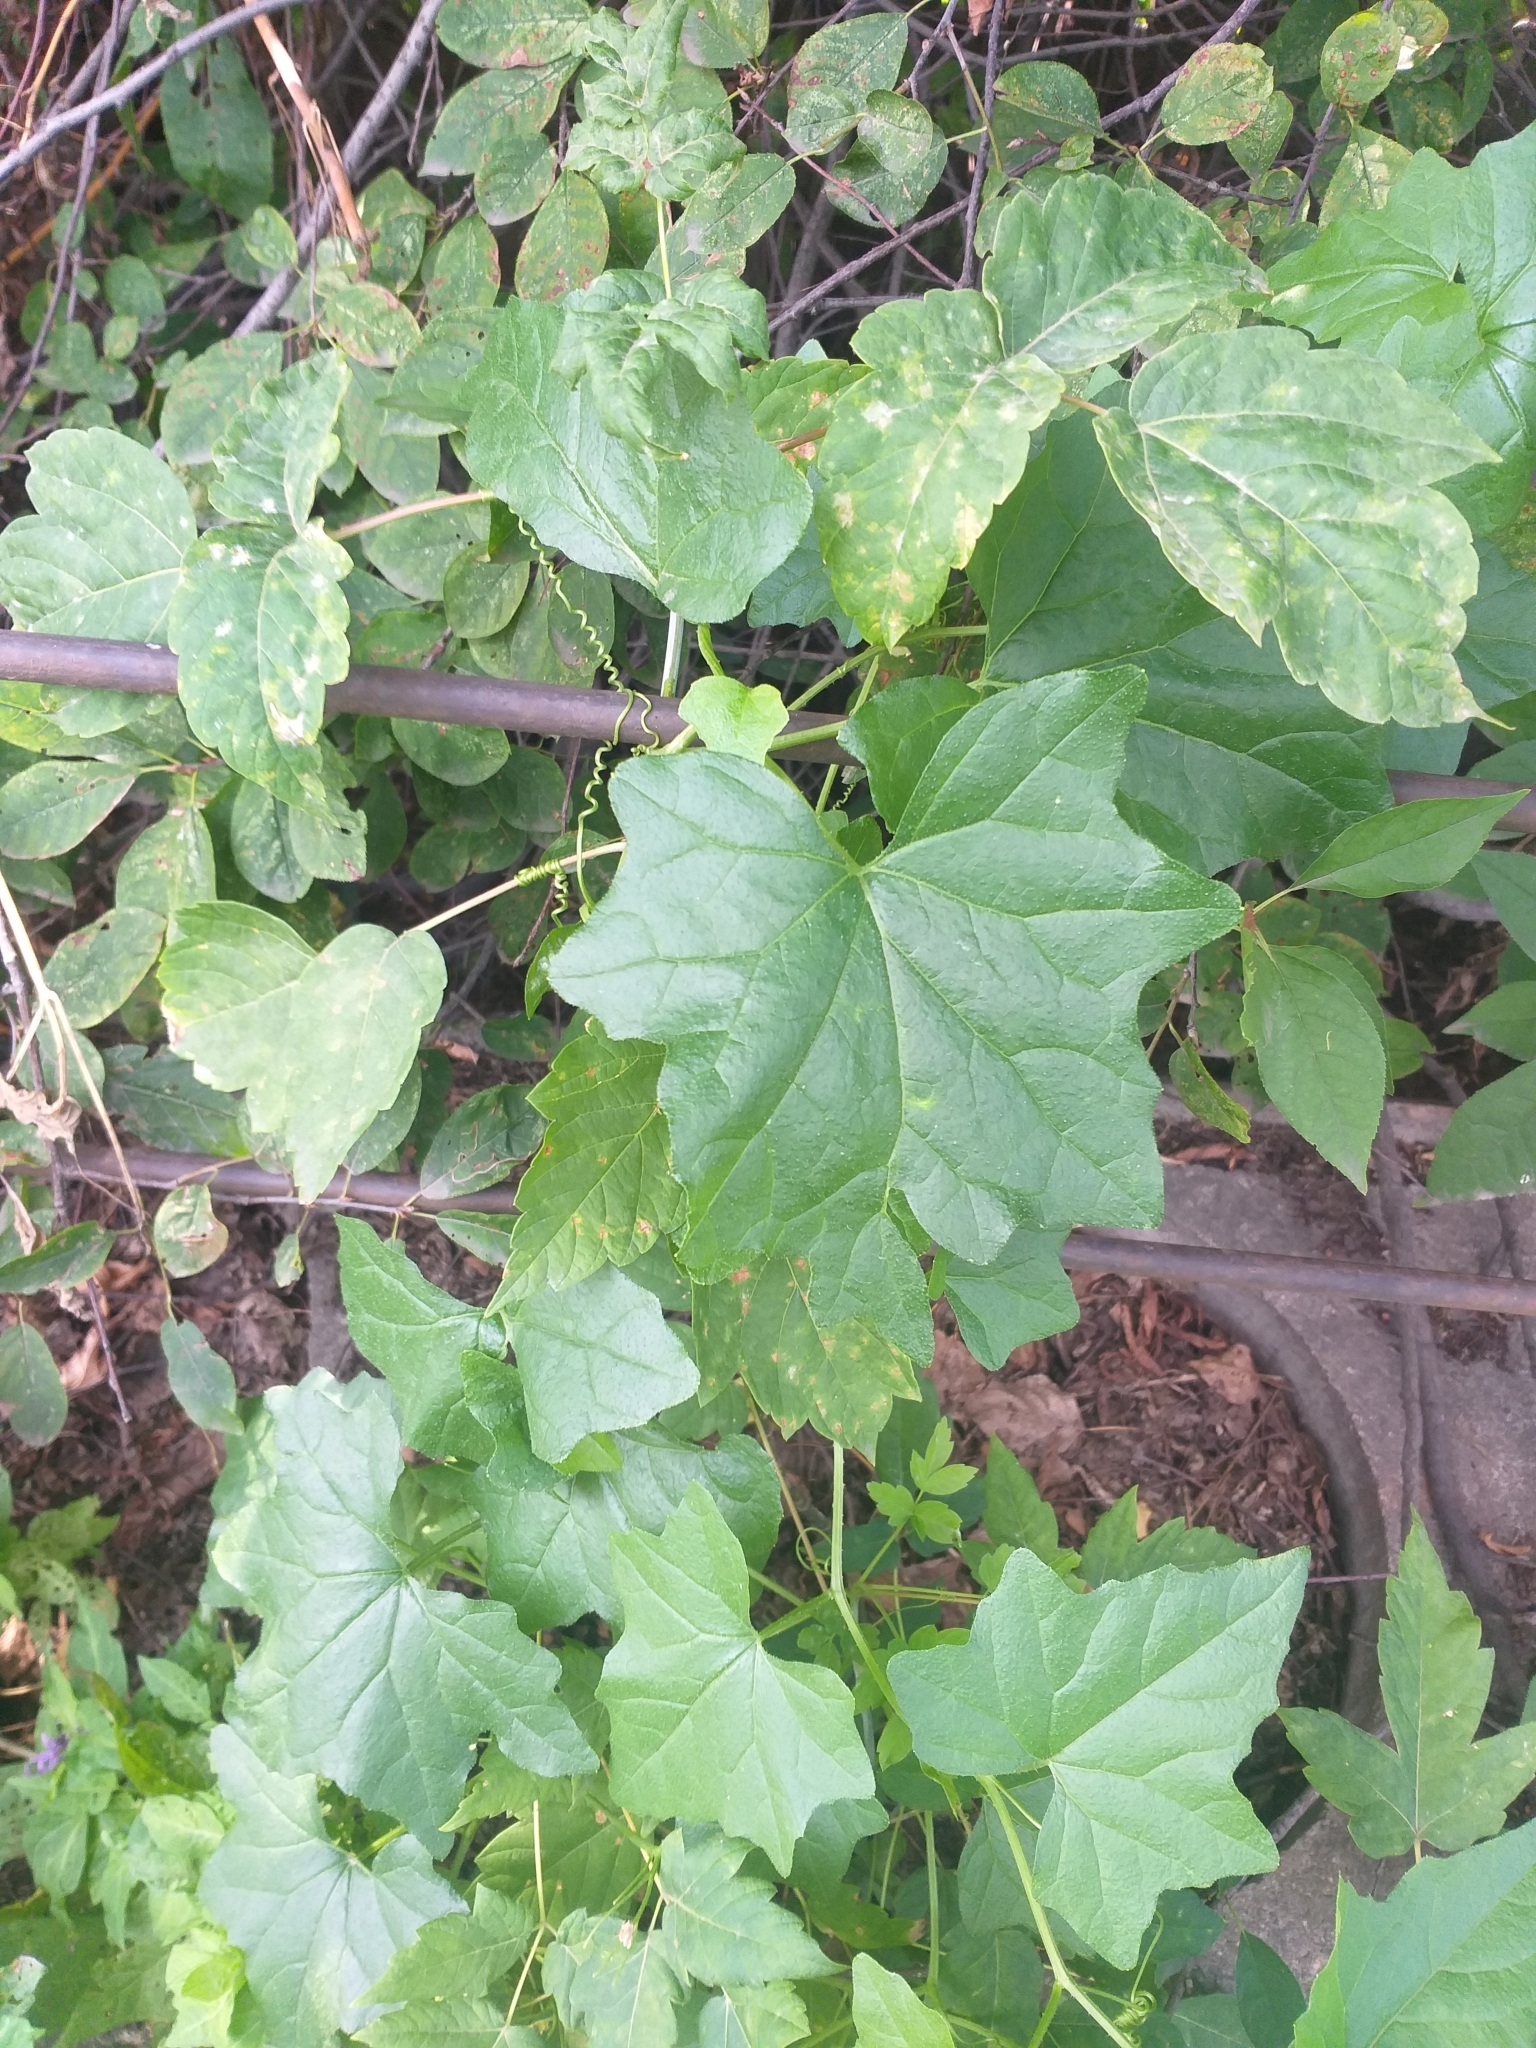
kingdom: Plantae
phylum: Tracheophyta
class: Magnoliopsida
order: Cucurbitales
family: Cucurbitaceae
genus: Bryonia
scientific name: Bryonia alba
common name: White bryony
